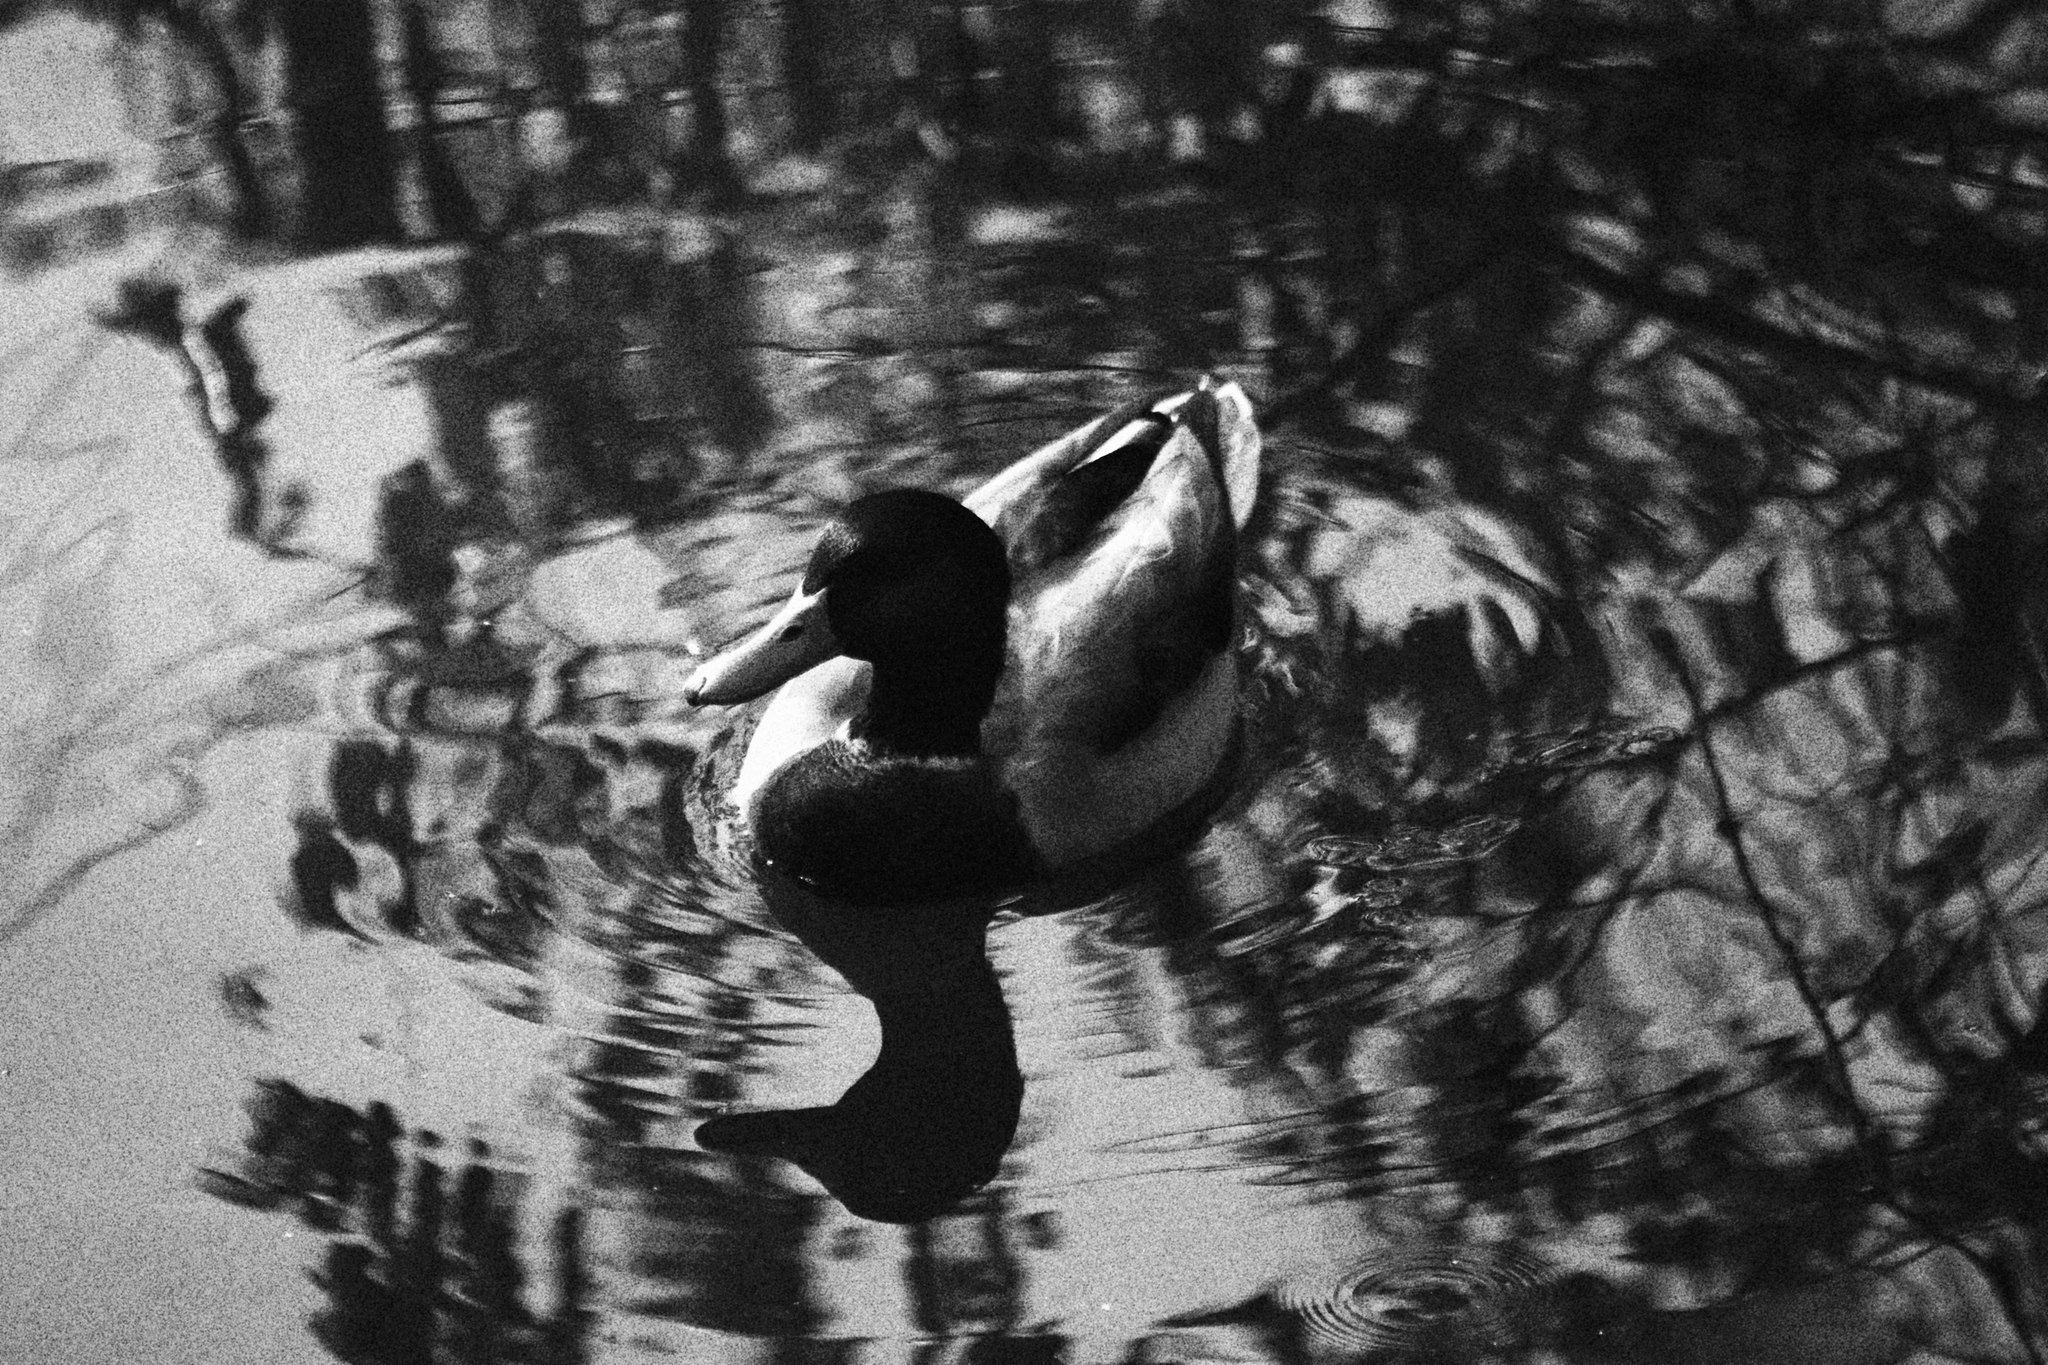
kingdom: Animalia
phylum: Chordata
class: Aves
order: Anseriformes
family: Anatidae
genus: Anas
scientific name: Anas platyrhynchos
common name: Mallard
